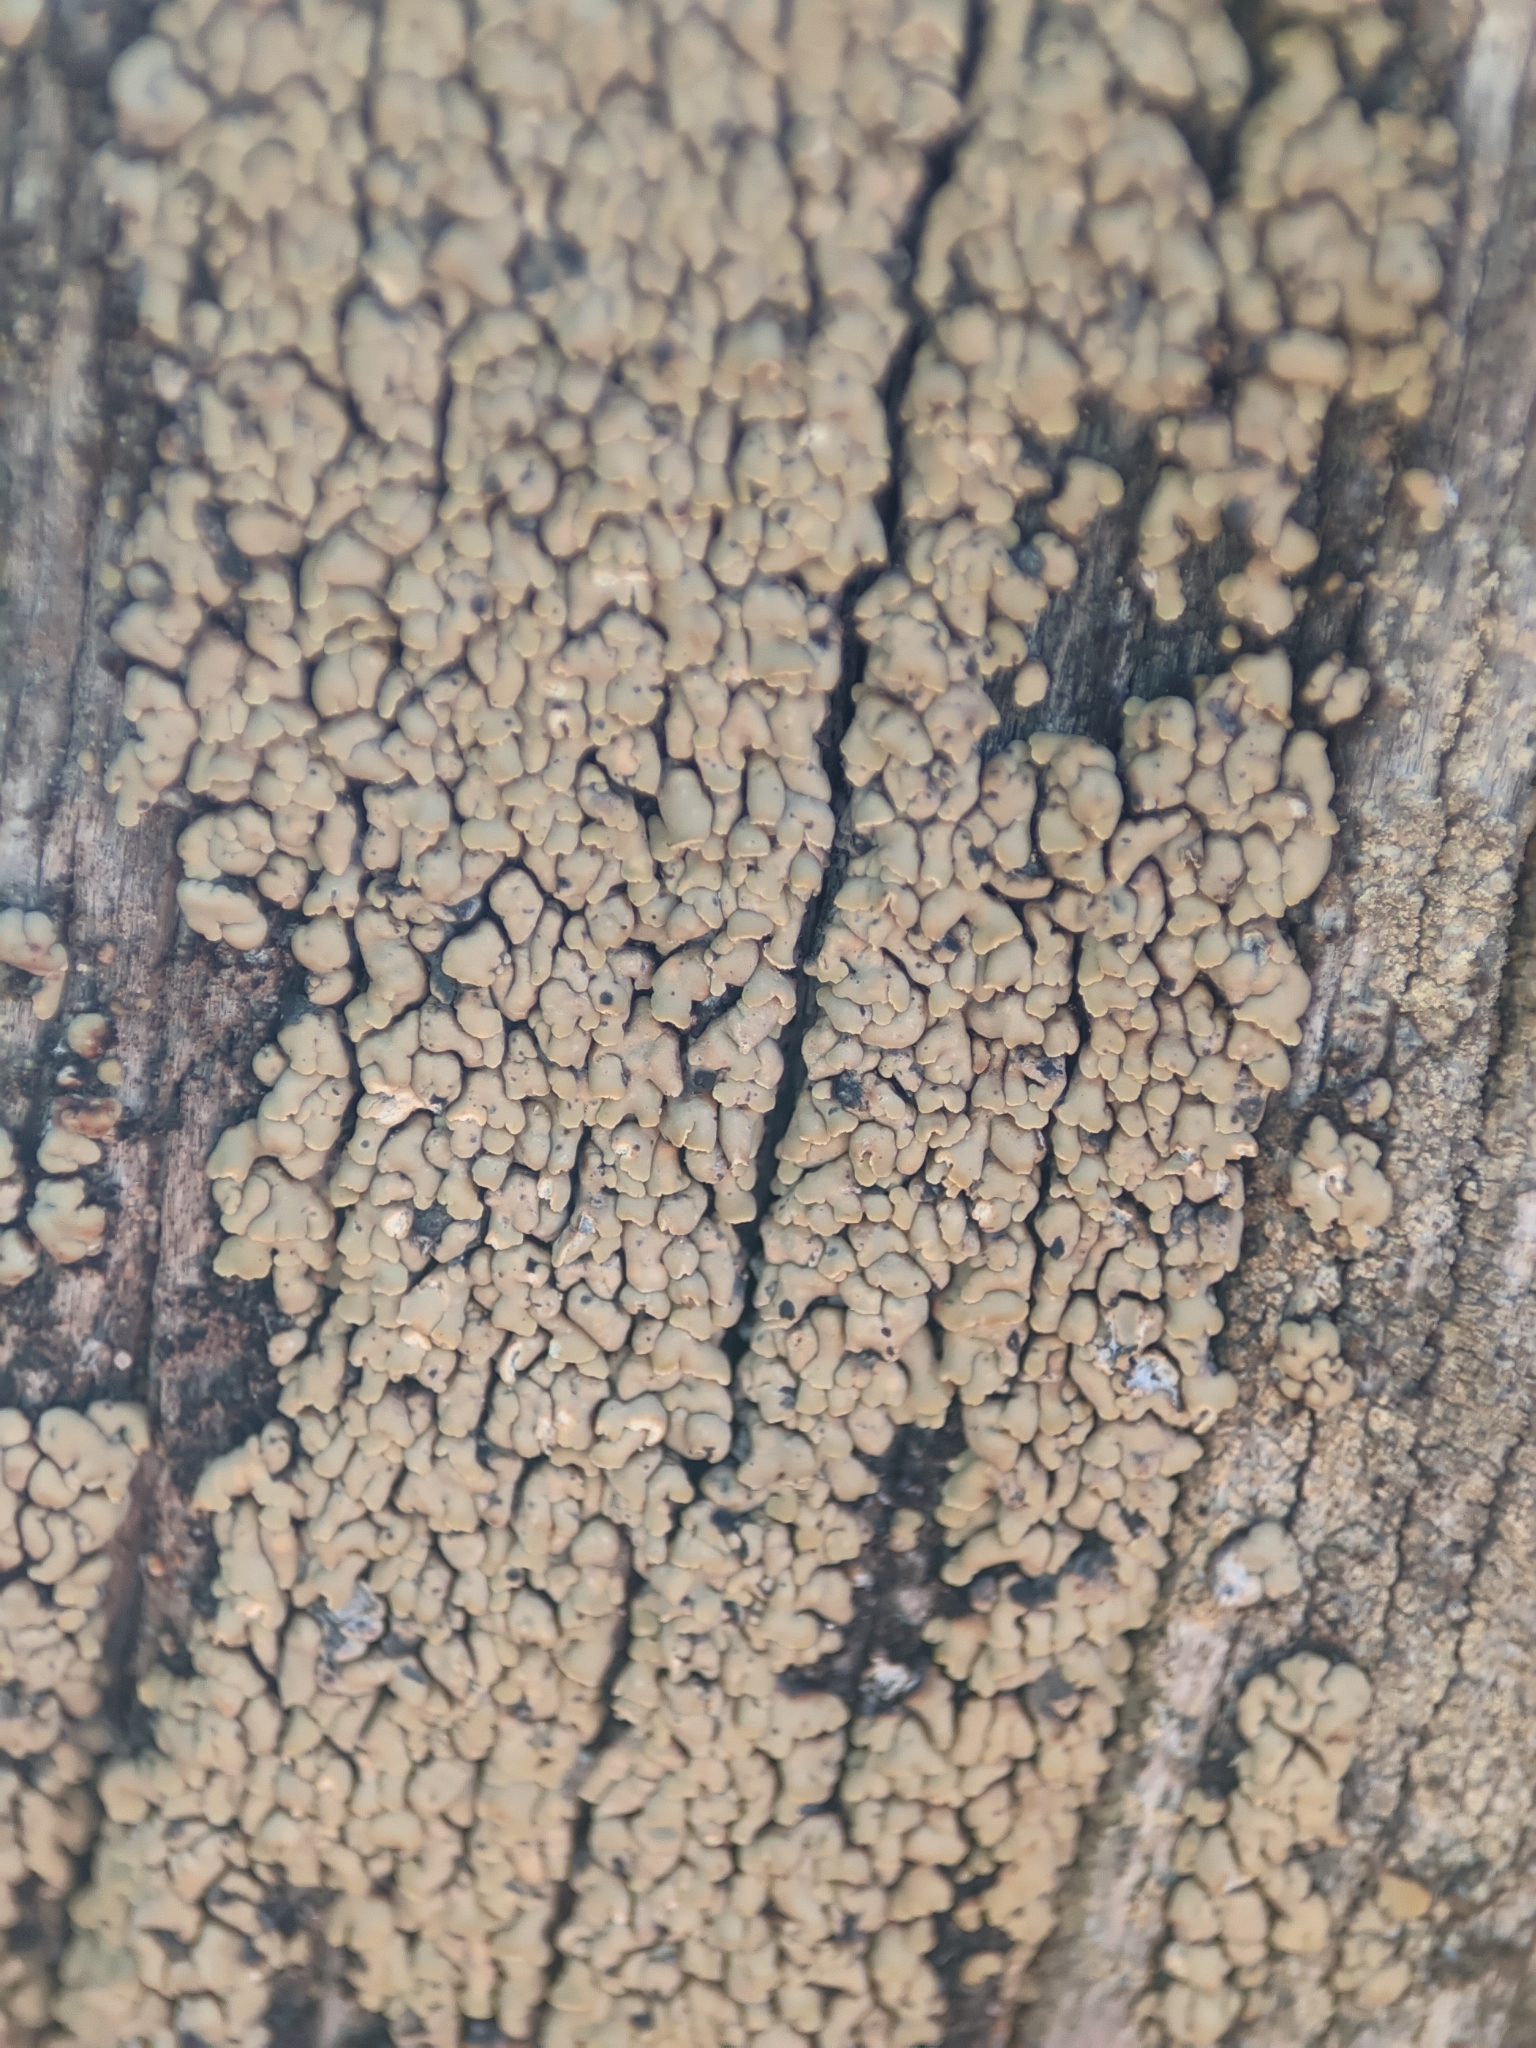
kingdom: Fungi
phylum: Ascomycota
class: Lecanoromycetes
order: Umbilicariales
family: Ophioparmaceae
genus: Hypocenomyce
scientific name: Hypocenomyce scalaris
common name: Common clam lichen
